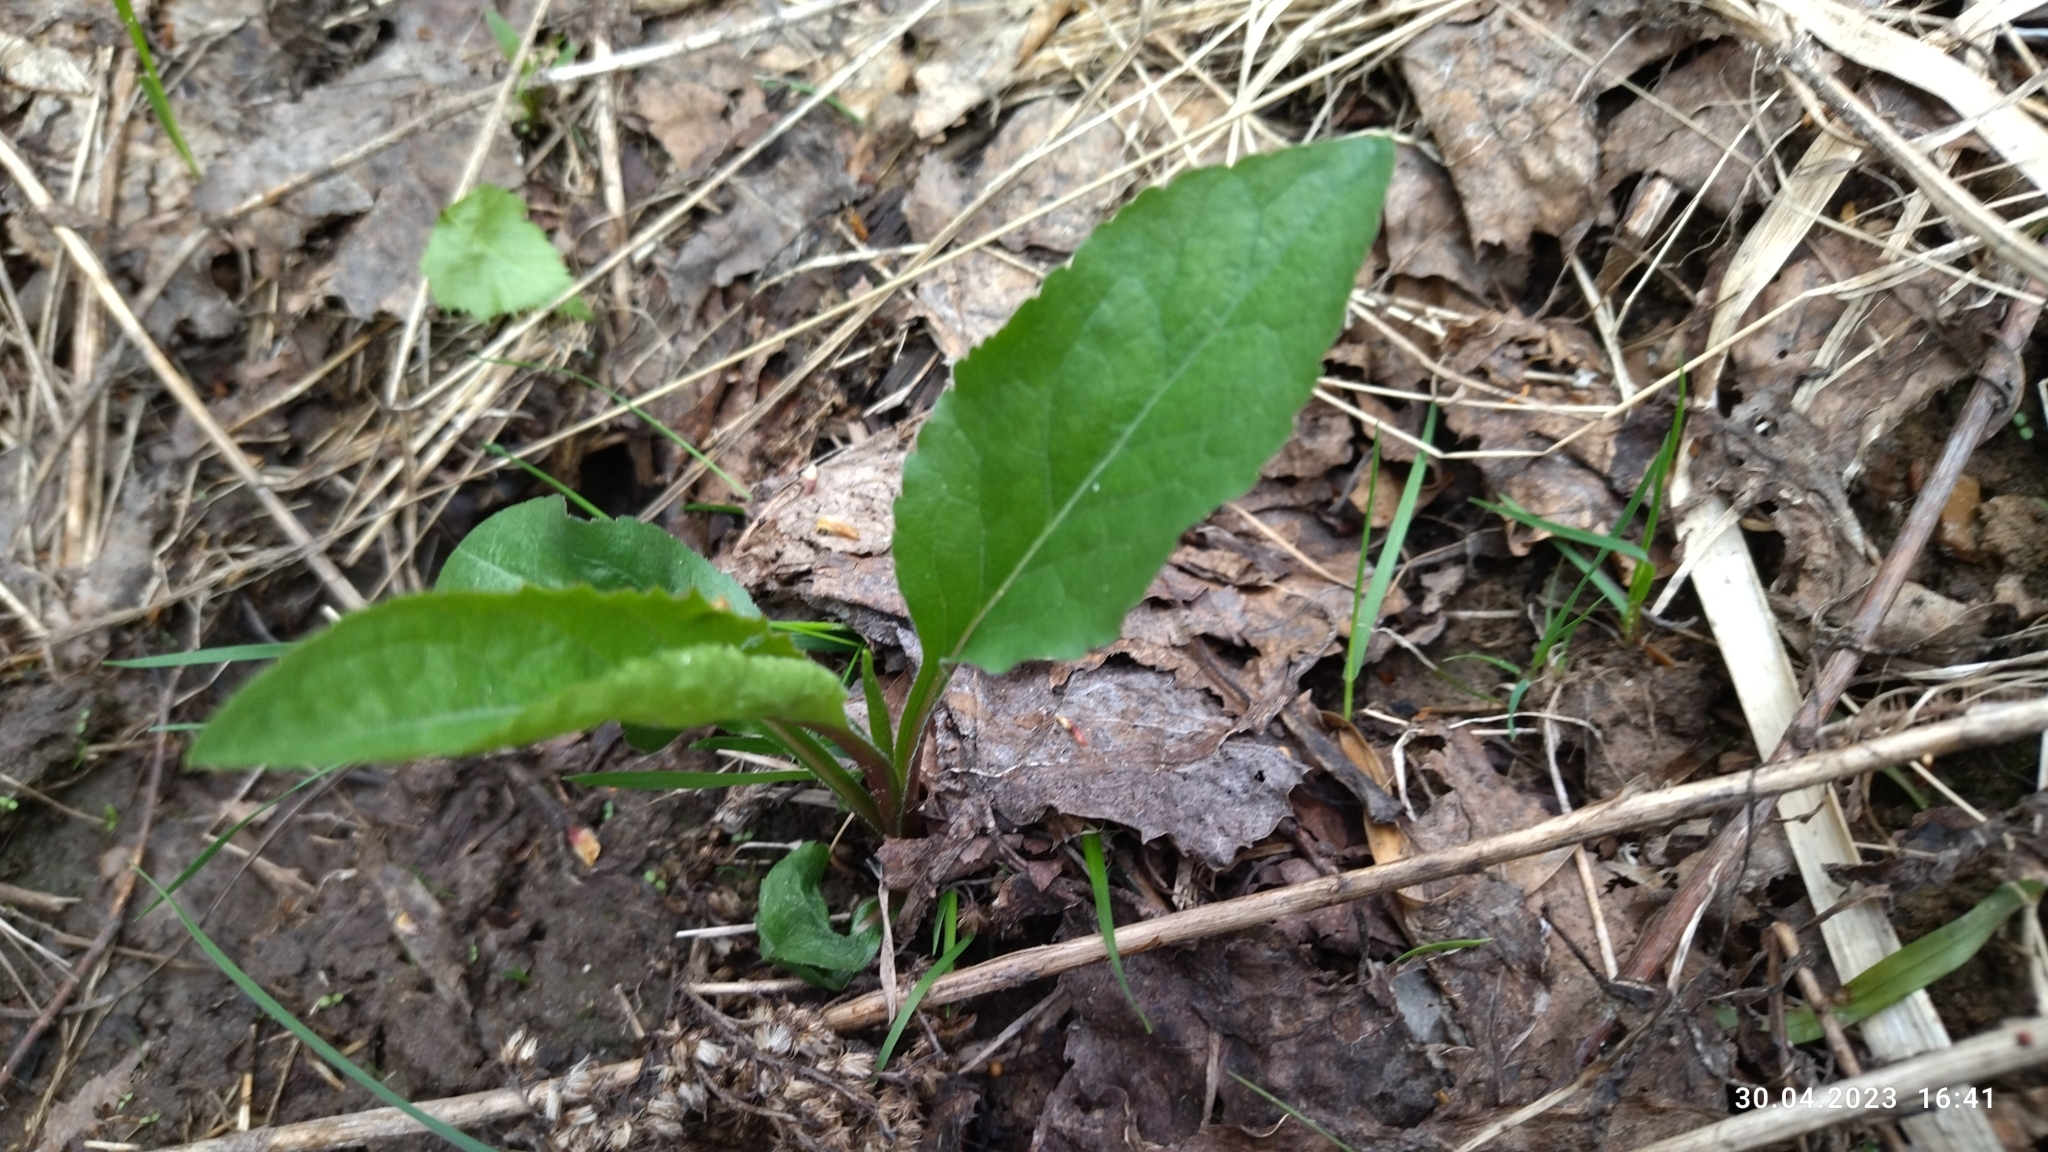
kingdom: Plantae
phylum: Tracheophyta
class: Magnoliopsida
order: Asterales
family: Asteraceae
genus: Solidago
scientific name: Solidago virgaurea
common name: Goldenrod
